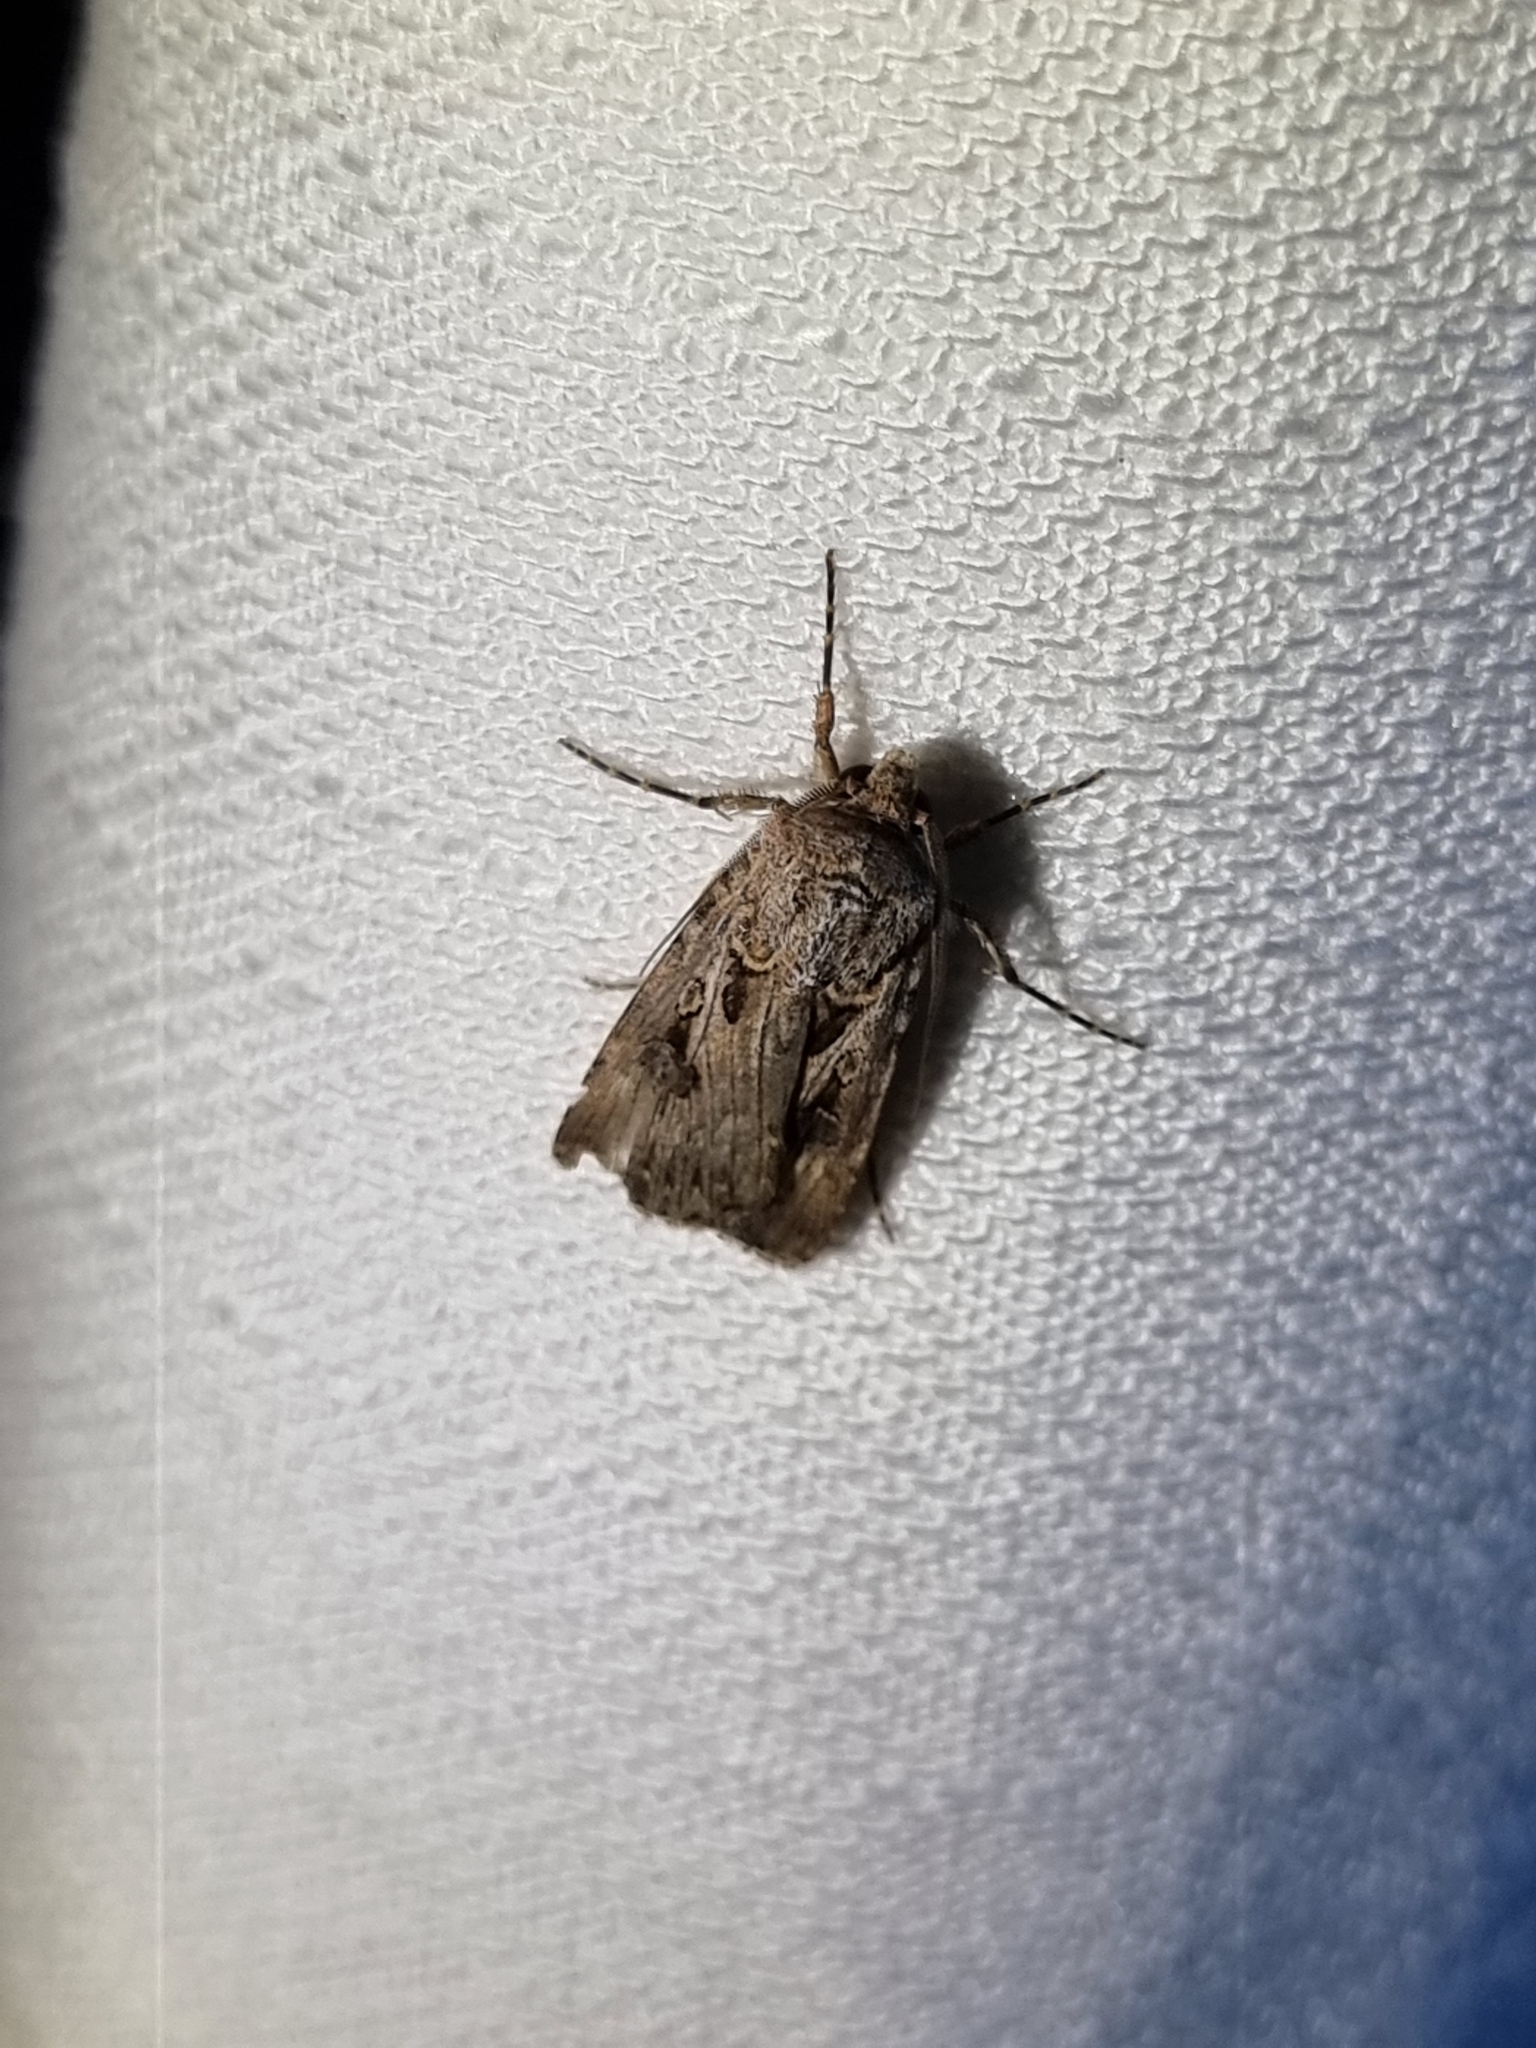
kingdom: Animalia
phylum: Arthropoda
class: Insecta
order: Lepidoptera
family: Noctuidae
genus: Agrotis
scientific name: Agrotis munda
